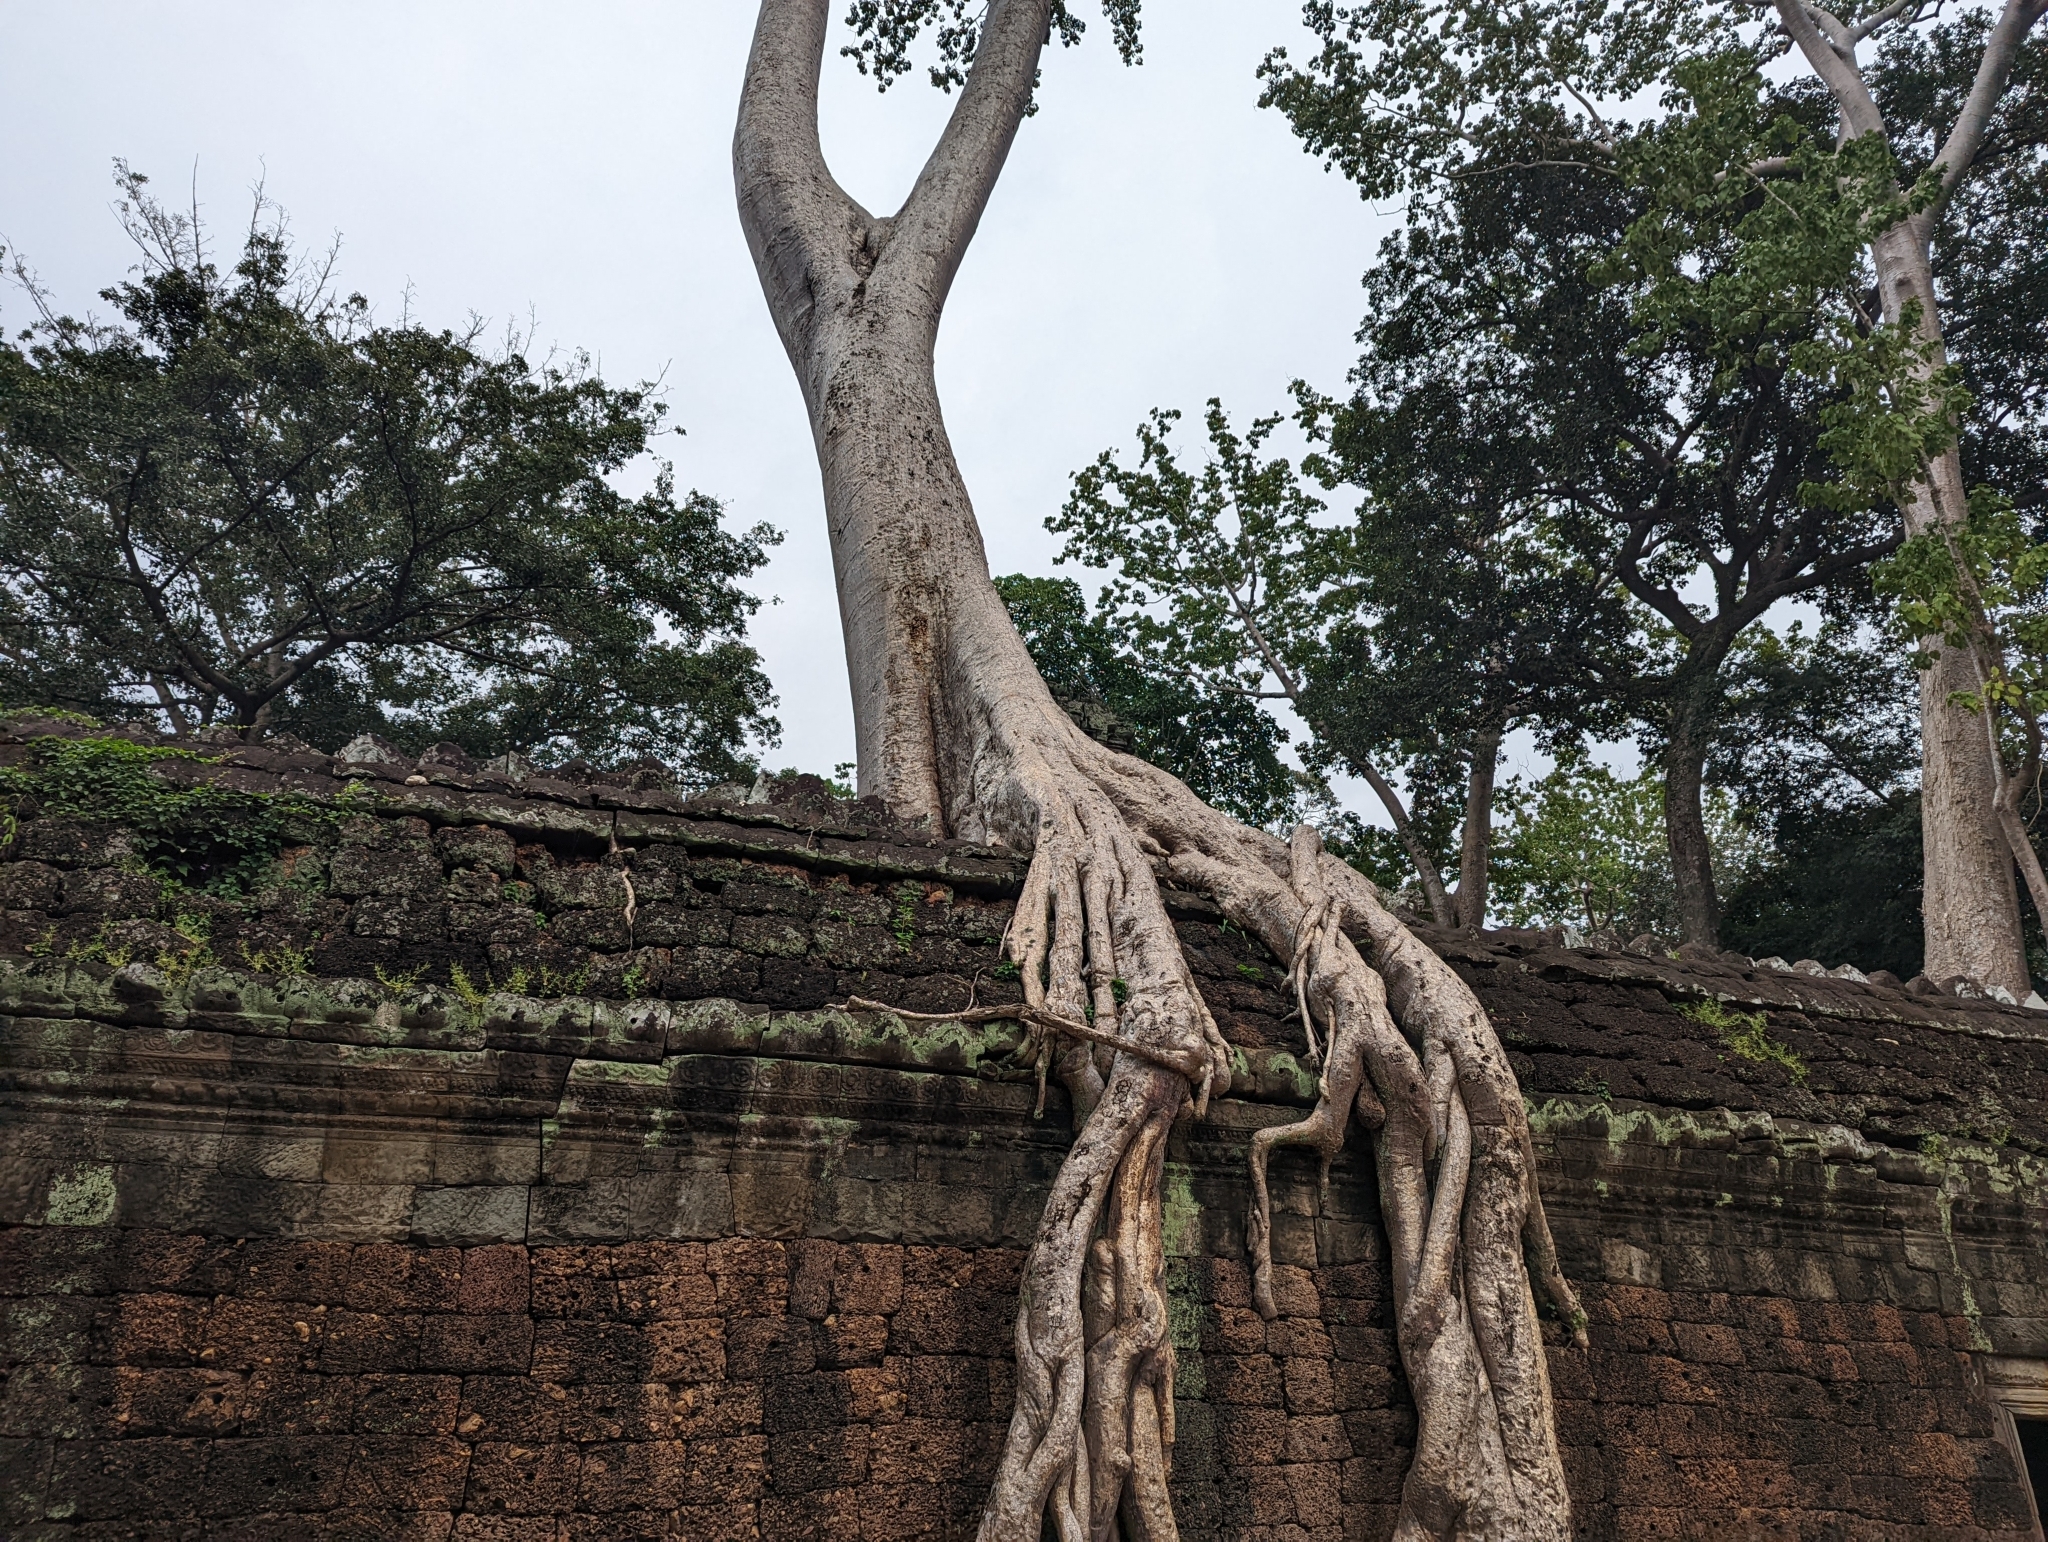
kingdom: Plantae
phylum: Tracheophyta
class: Magnoliopsida
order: Cucurbitales
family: Tetramelaceae
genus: Tetrameles
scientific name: Tetrameles nudiflora
